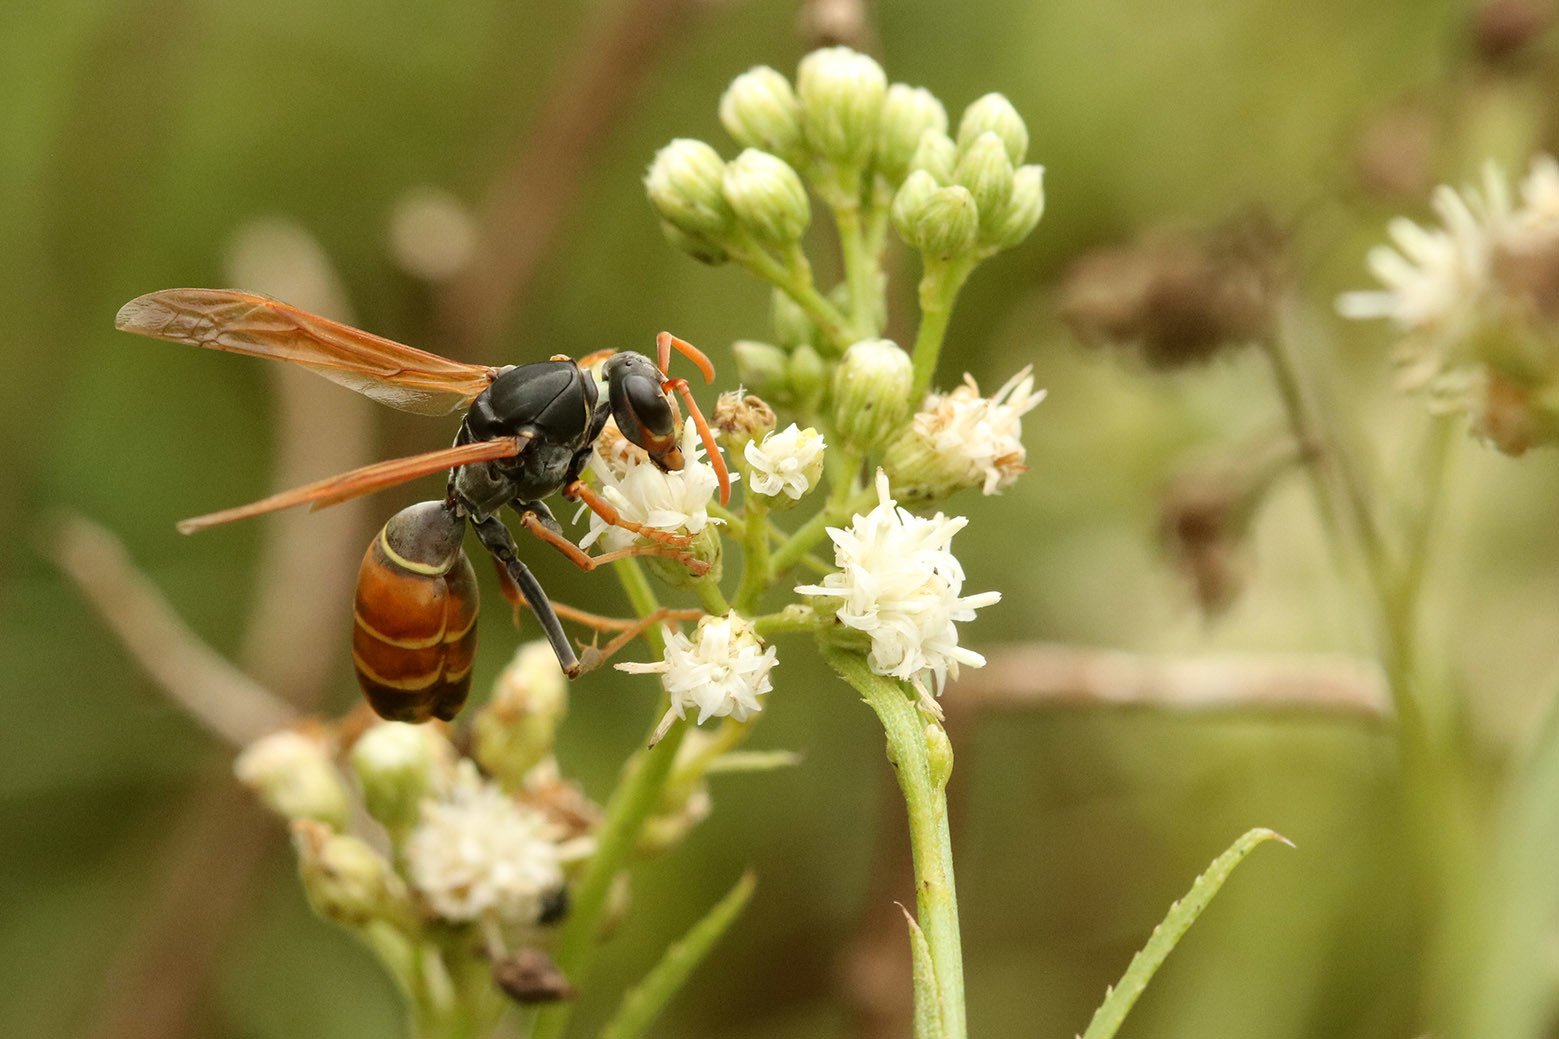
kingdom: Animalia
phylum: Arthropoda
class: Insecta
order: Hymenoptera
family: Eumenidae
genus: Polistes
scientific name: Polistes billardieri
